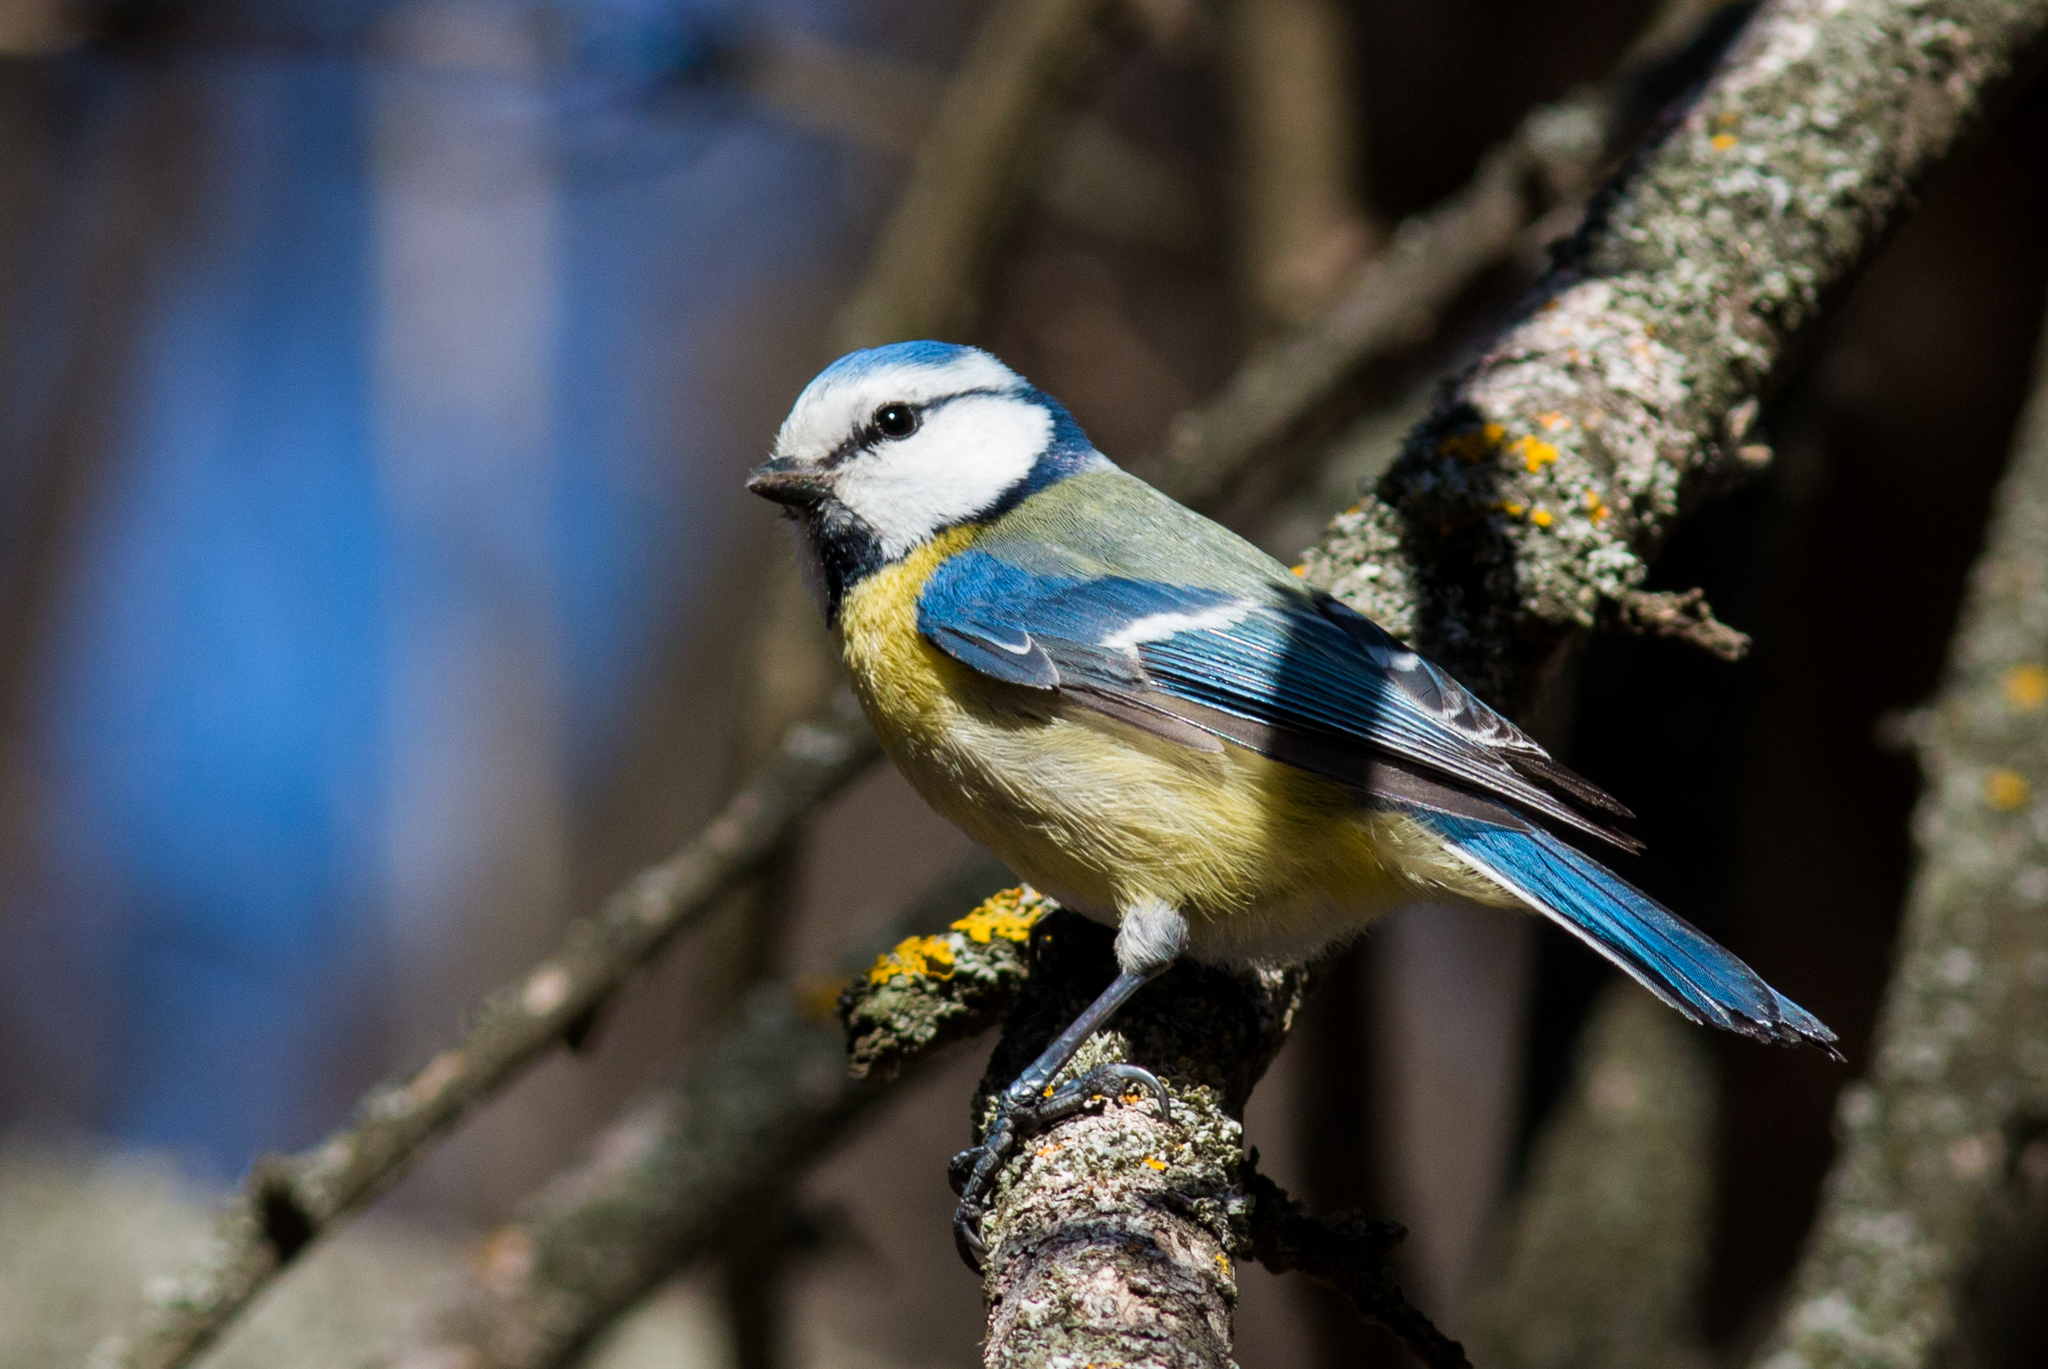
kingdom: Animalia
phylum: Chordata
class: Aves
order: Passeriformes
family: Paridae
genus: Cyanistes
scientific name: Cyanistes caeruleus
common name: Eurasian blue tit
